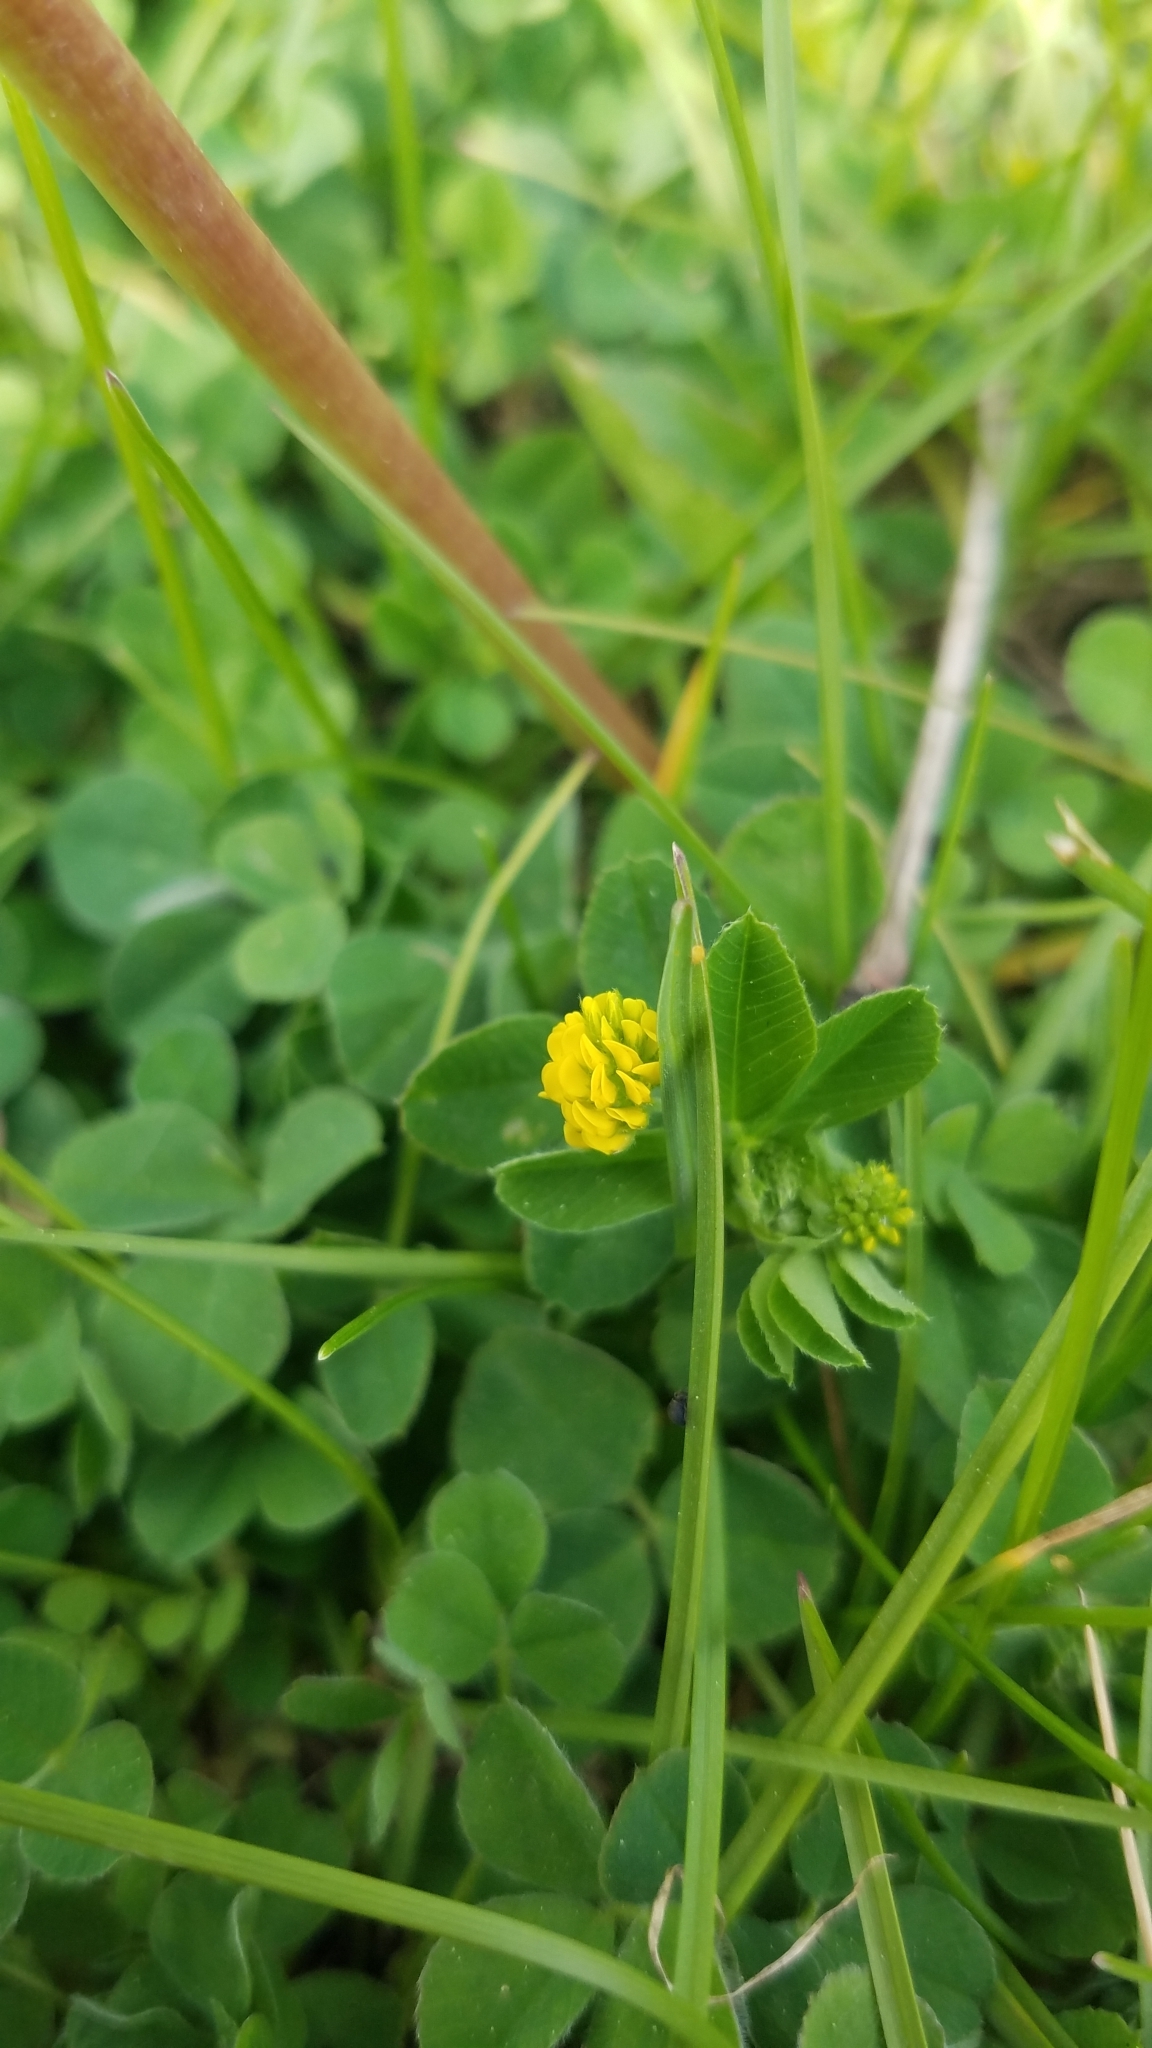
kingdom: Plantae
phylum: Tracheophyta
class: Magnoliopsida
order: Fabales
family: Fabaceae
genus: Medicago
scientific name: Medicago lupulina
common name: Black medick
